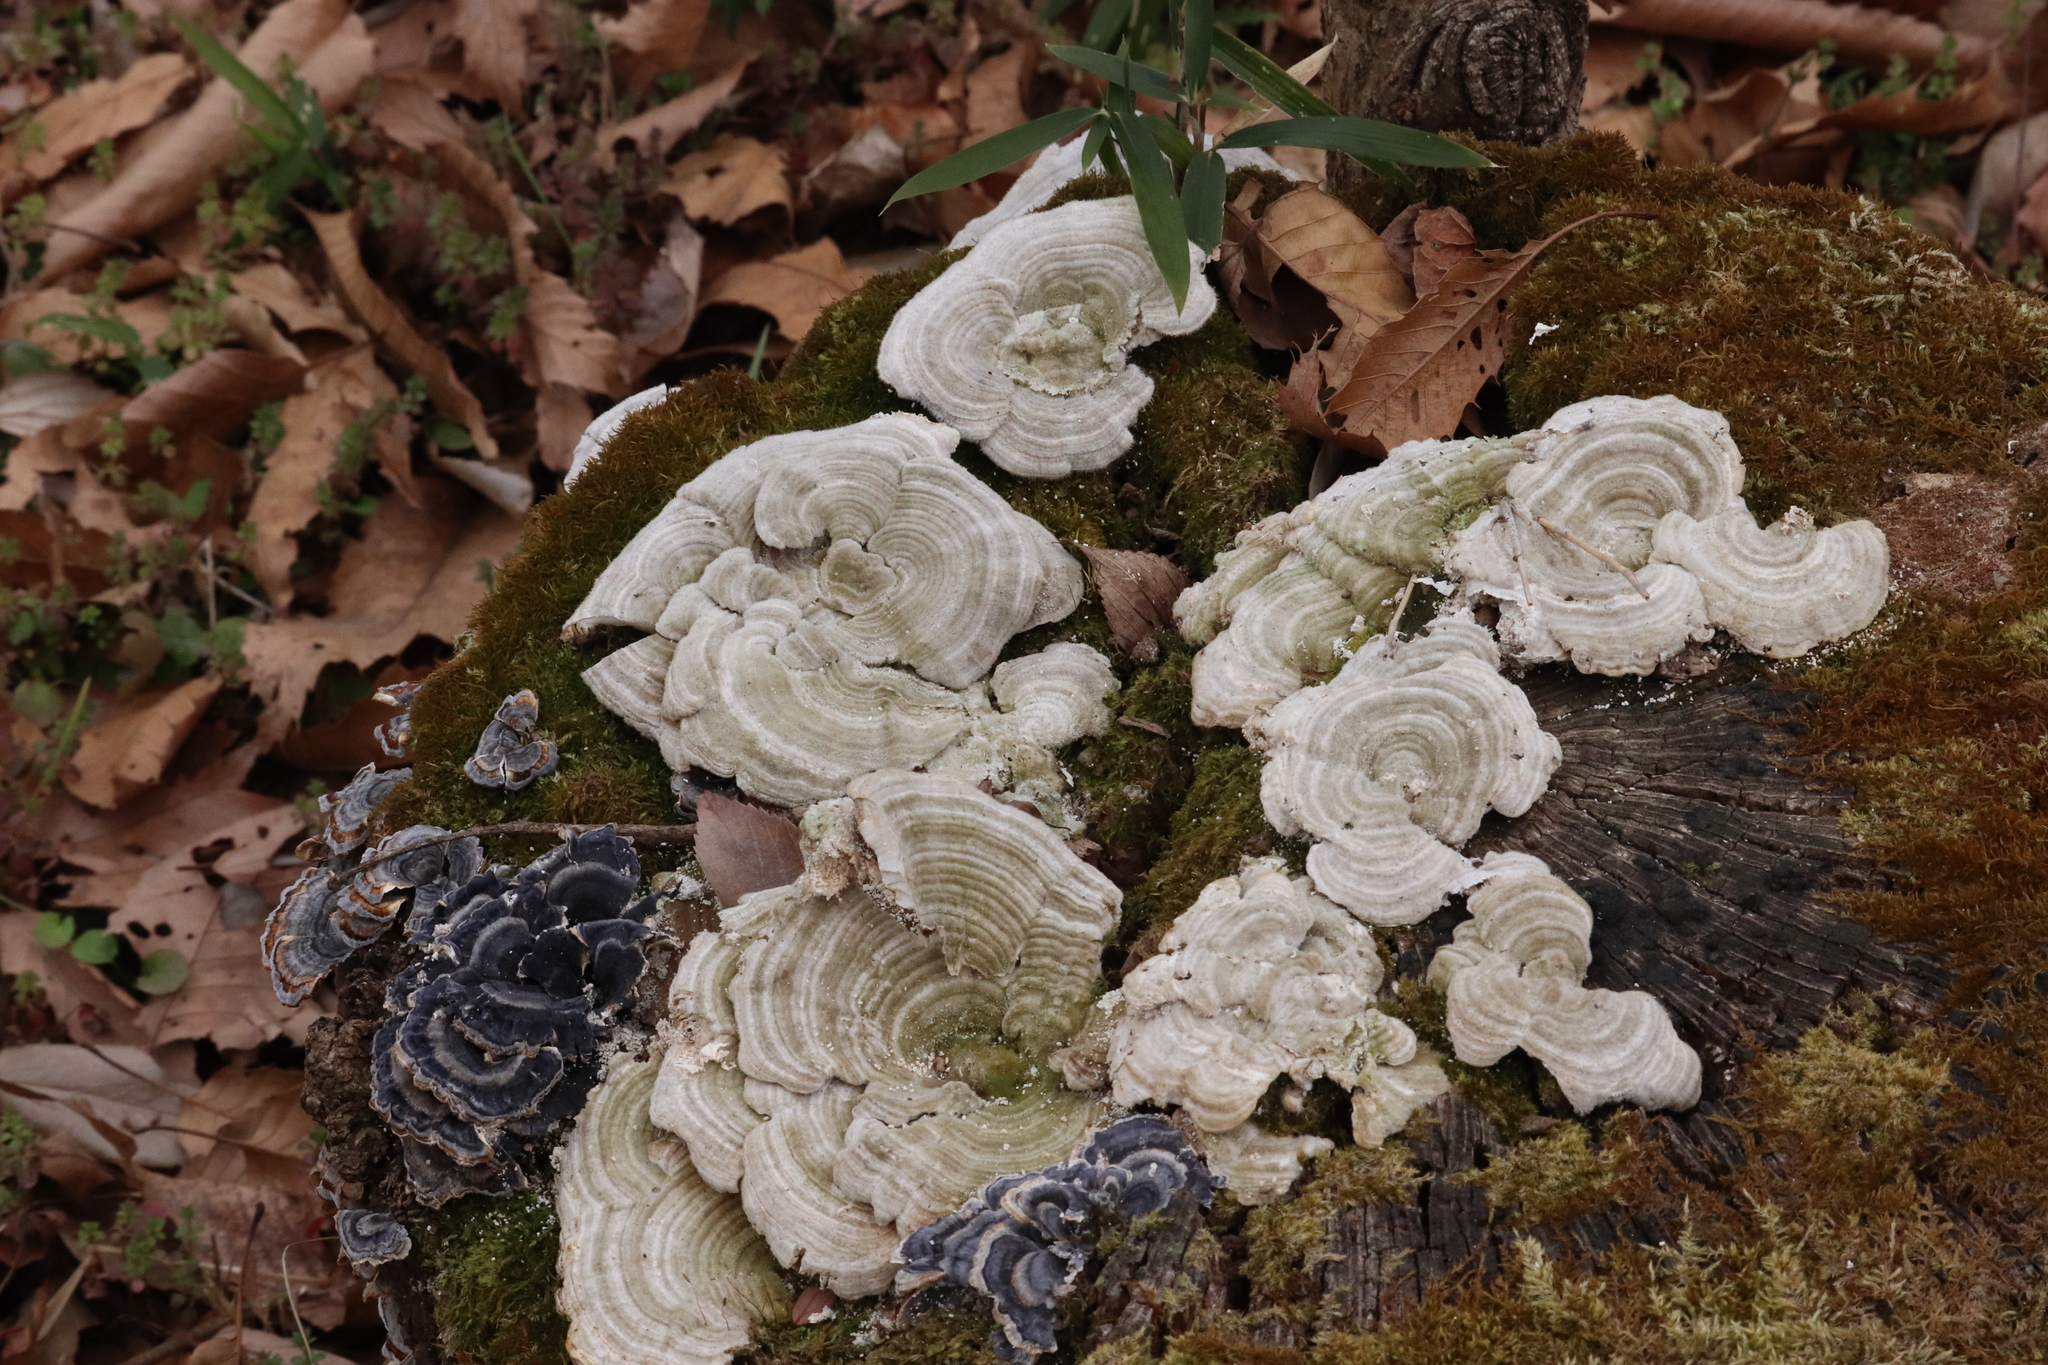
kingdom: Fungi
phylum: Basidiomycota
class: Agaricomycetes
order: Polyporales
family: Polyporaceae
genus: Lenzites
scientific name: Lenzites betulinus
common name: Birch mazegill
